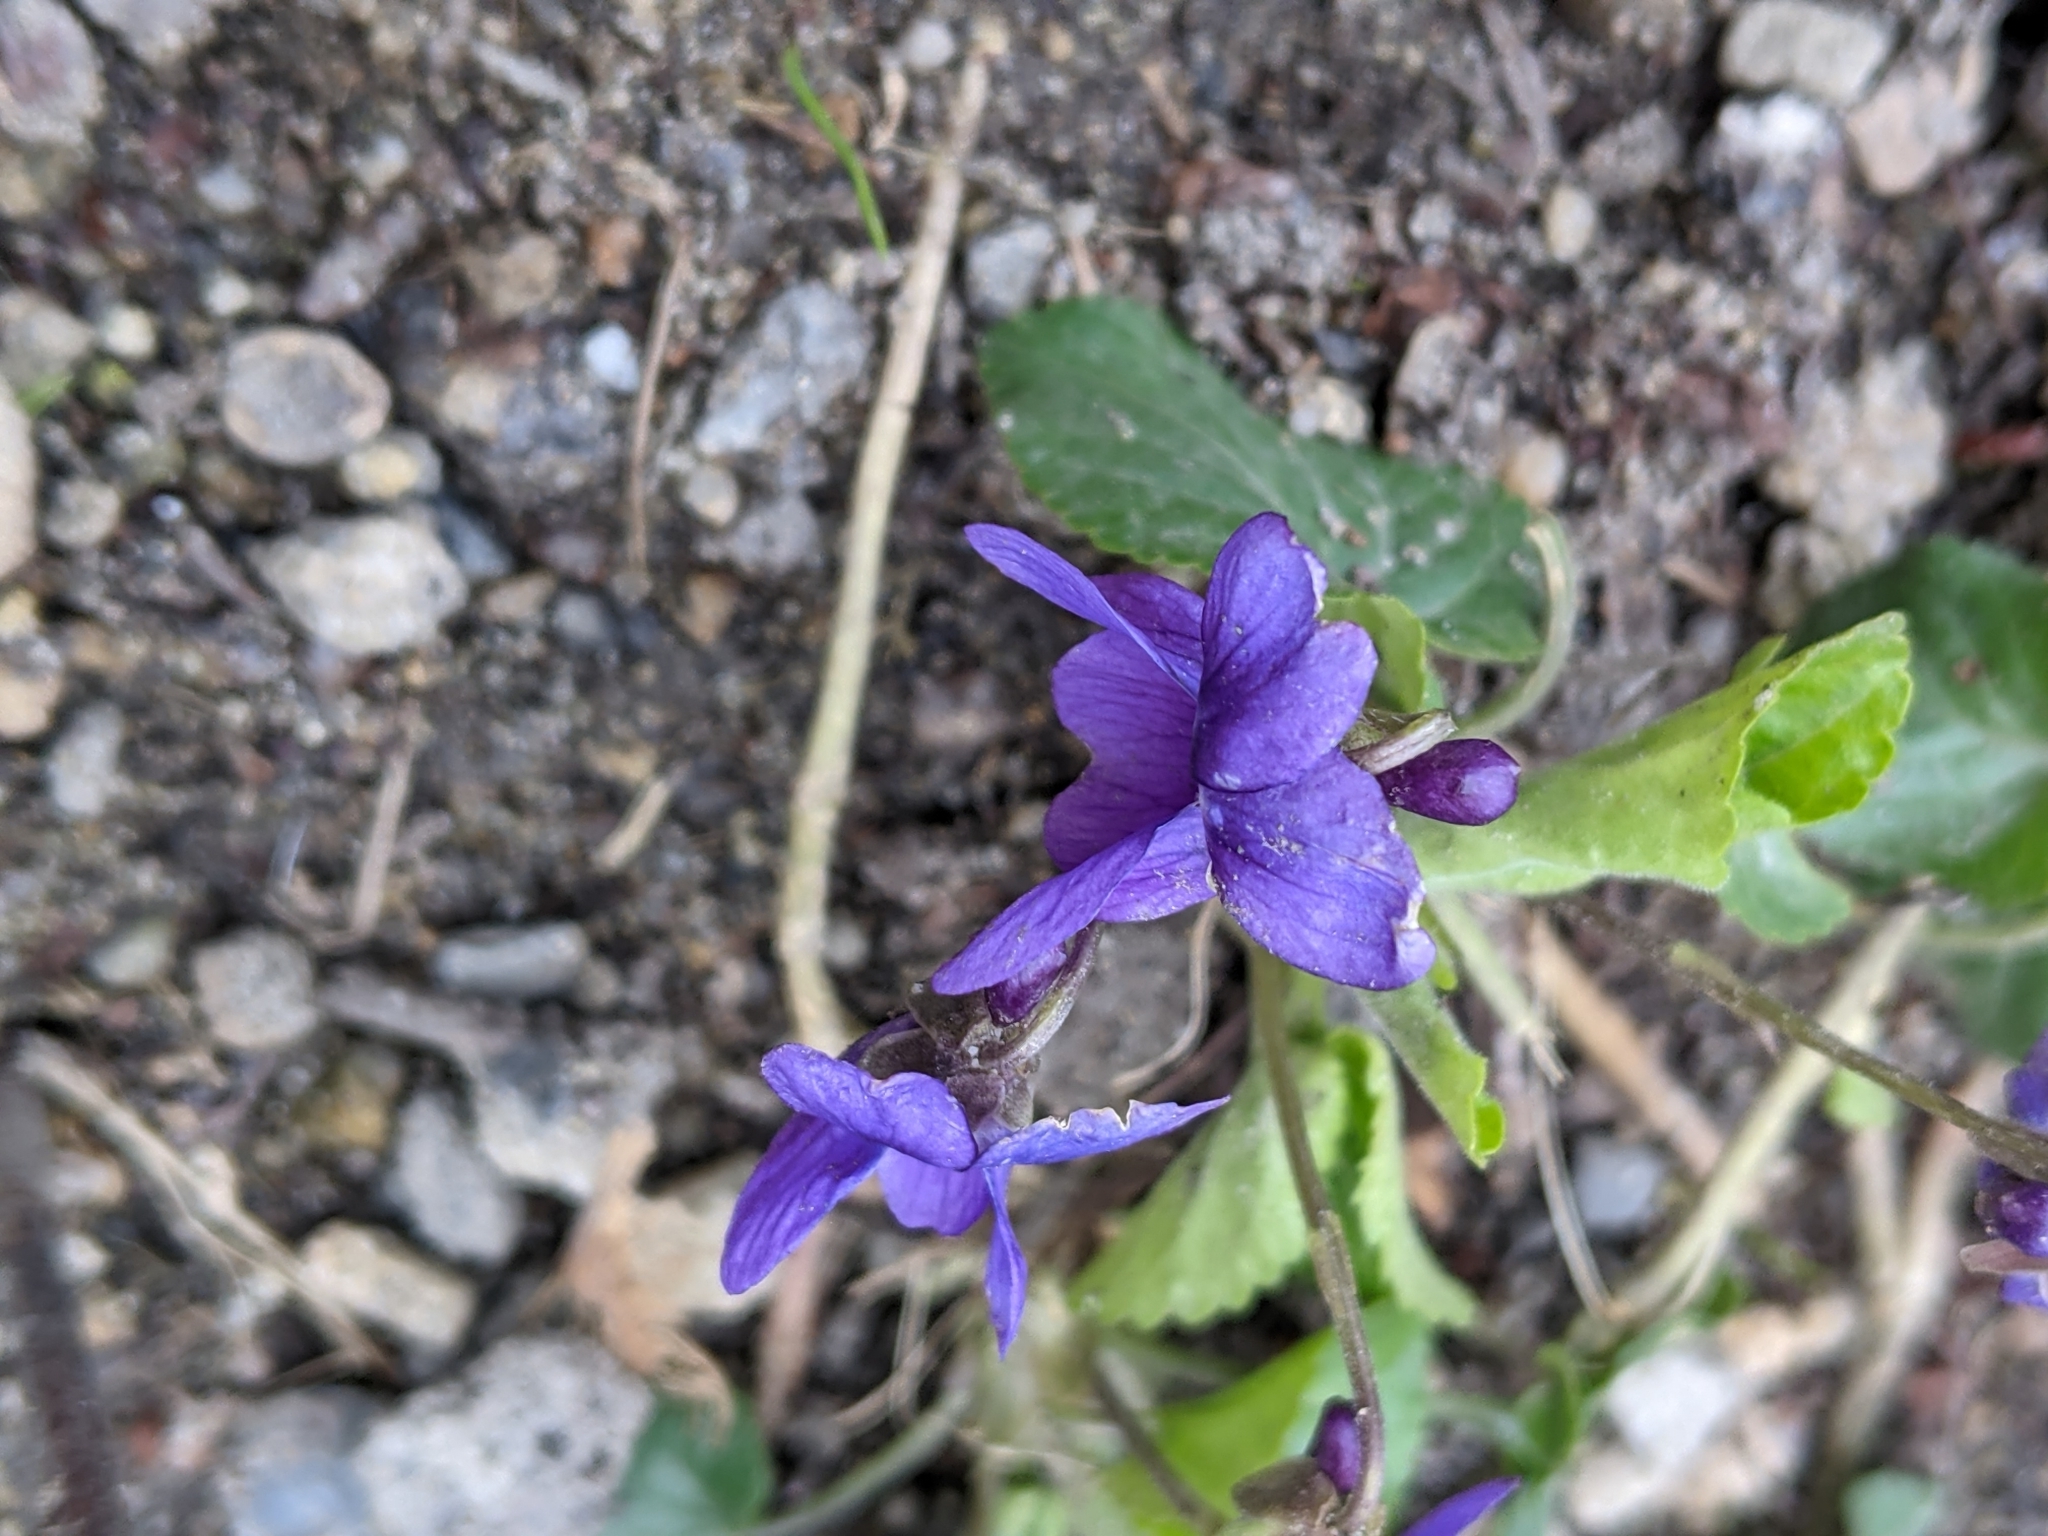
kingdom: Plantae
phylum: Tracheophyta
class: Magnoliopsida
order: Malpighiales
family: Violaceae
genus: Viola
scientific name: Viola odorata
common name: Sweet violet
